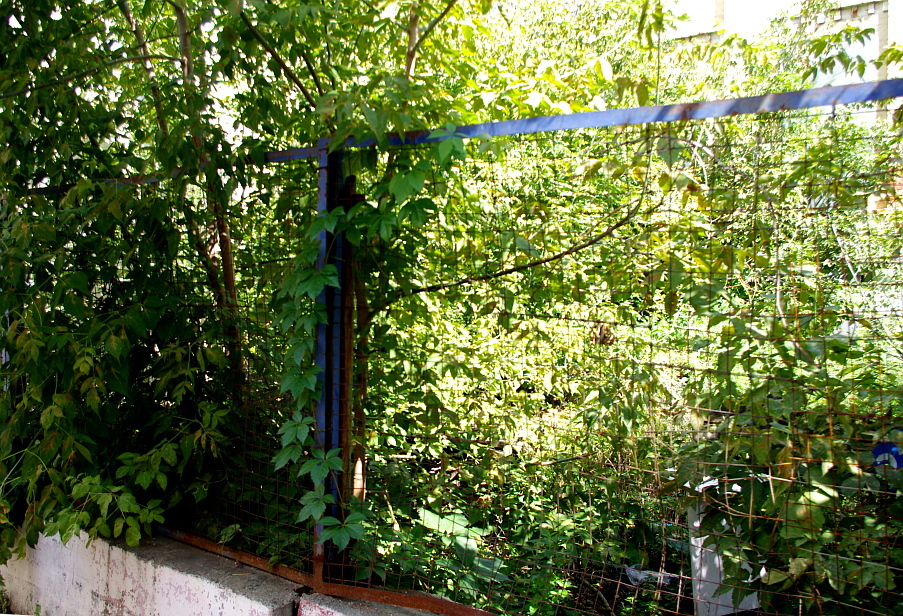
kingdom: Plantae
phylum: Tracheophyta
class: Magnoliopsida
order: Vitales
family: Vitaceae
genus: Parthenocissus
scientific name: Parthenocissus inserta
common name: False virginia-creeper
